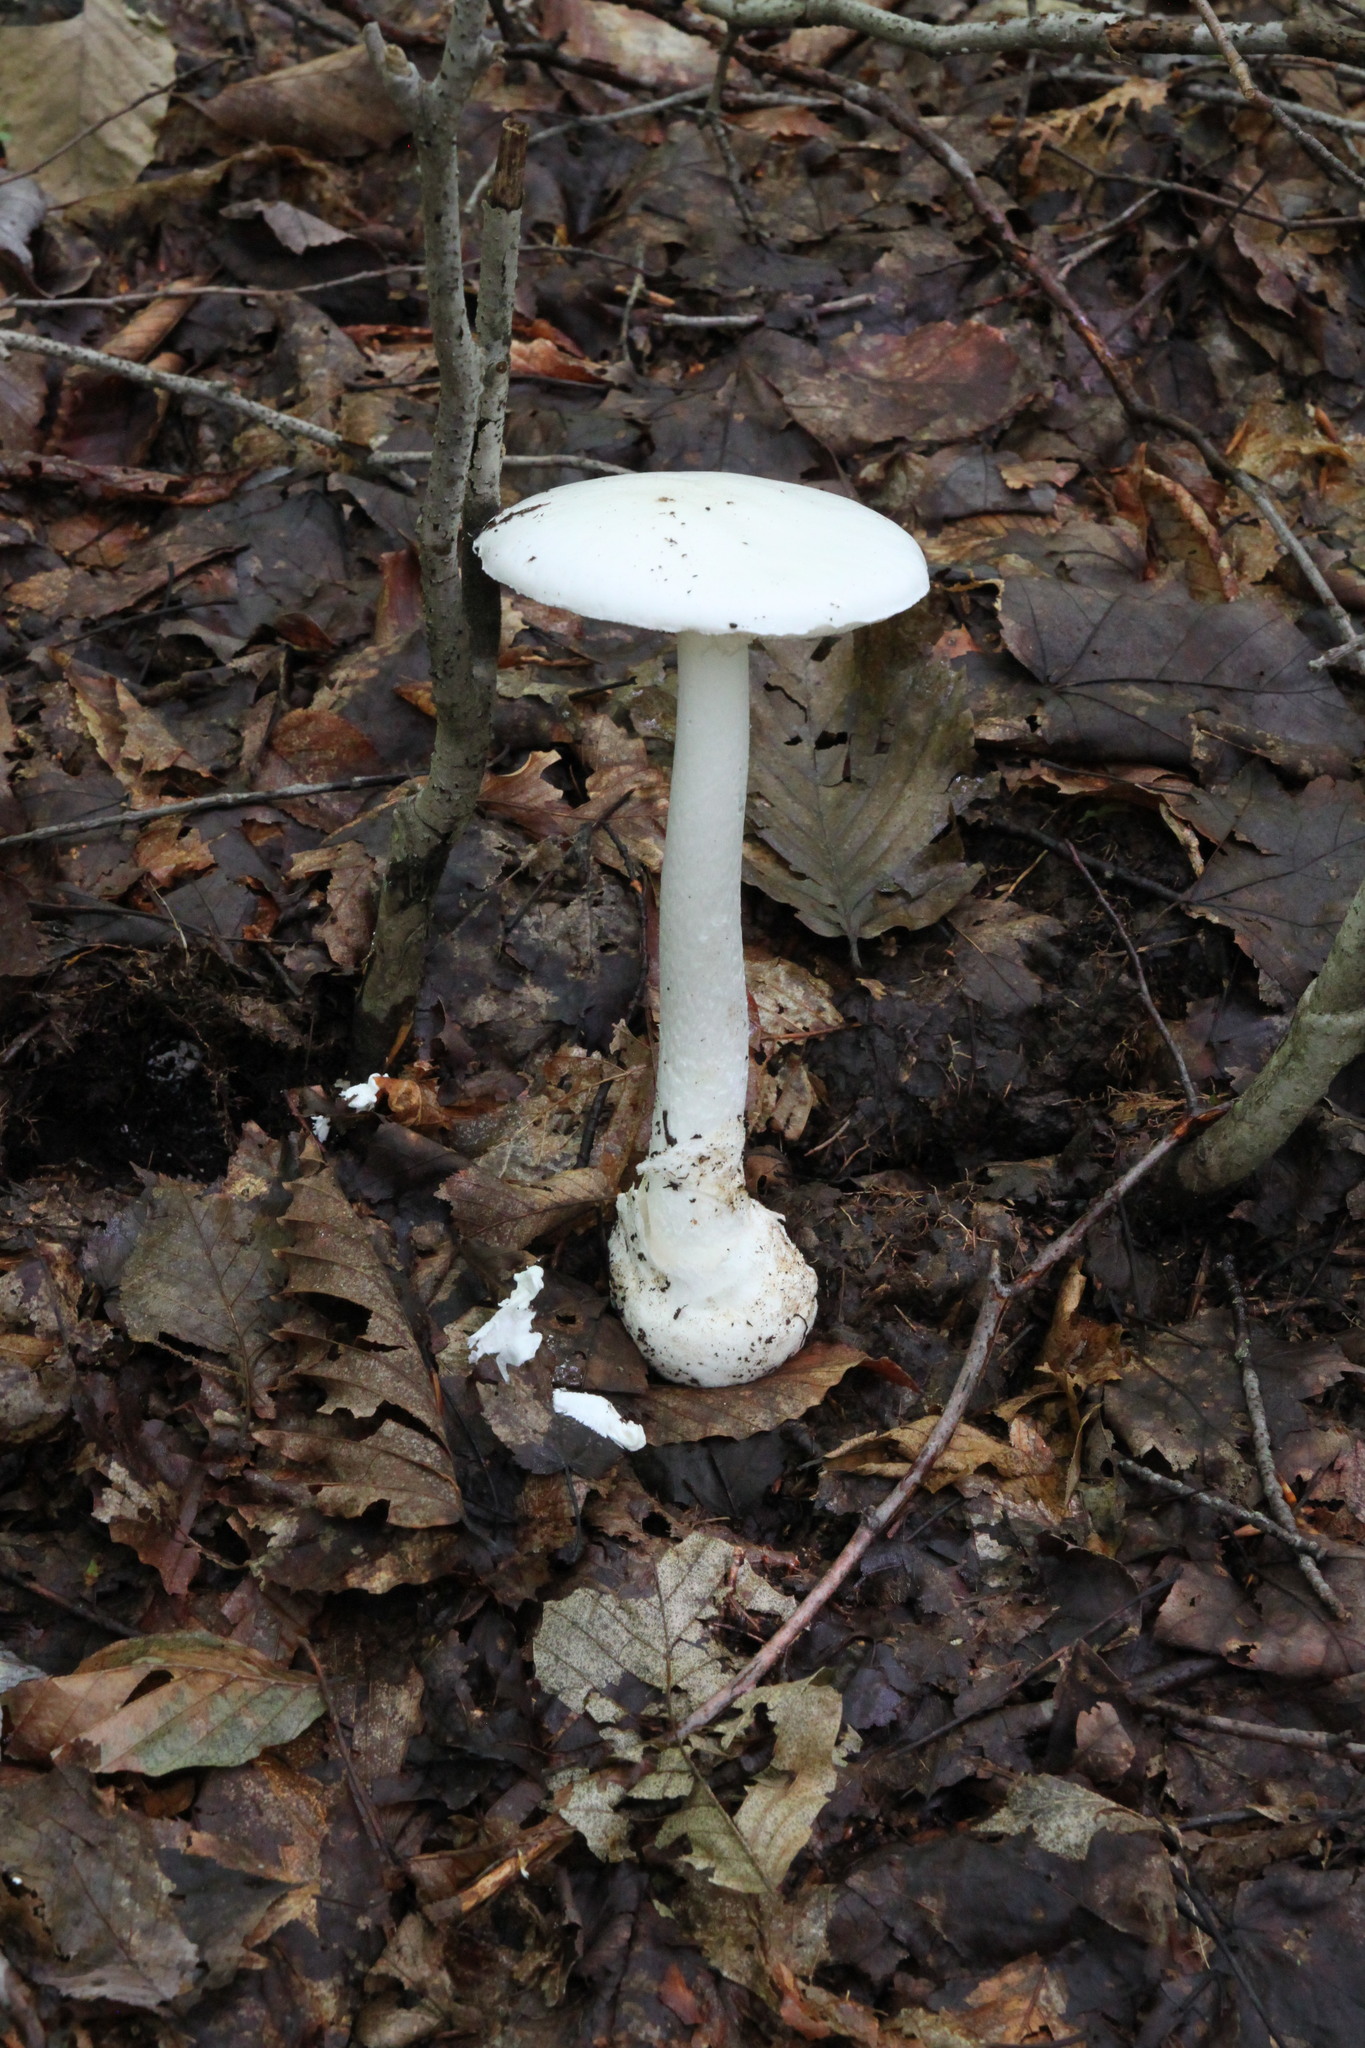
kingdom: Fungi
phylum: Basidiomycota
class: Agaricomycetes
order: Agaricales
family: Amanitaceae
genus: Amanita
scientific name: Amanita bisporigera
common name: Eastern north american destroying angel
